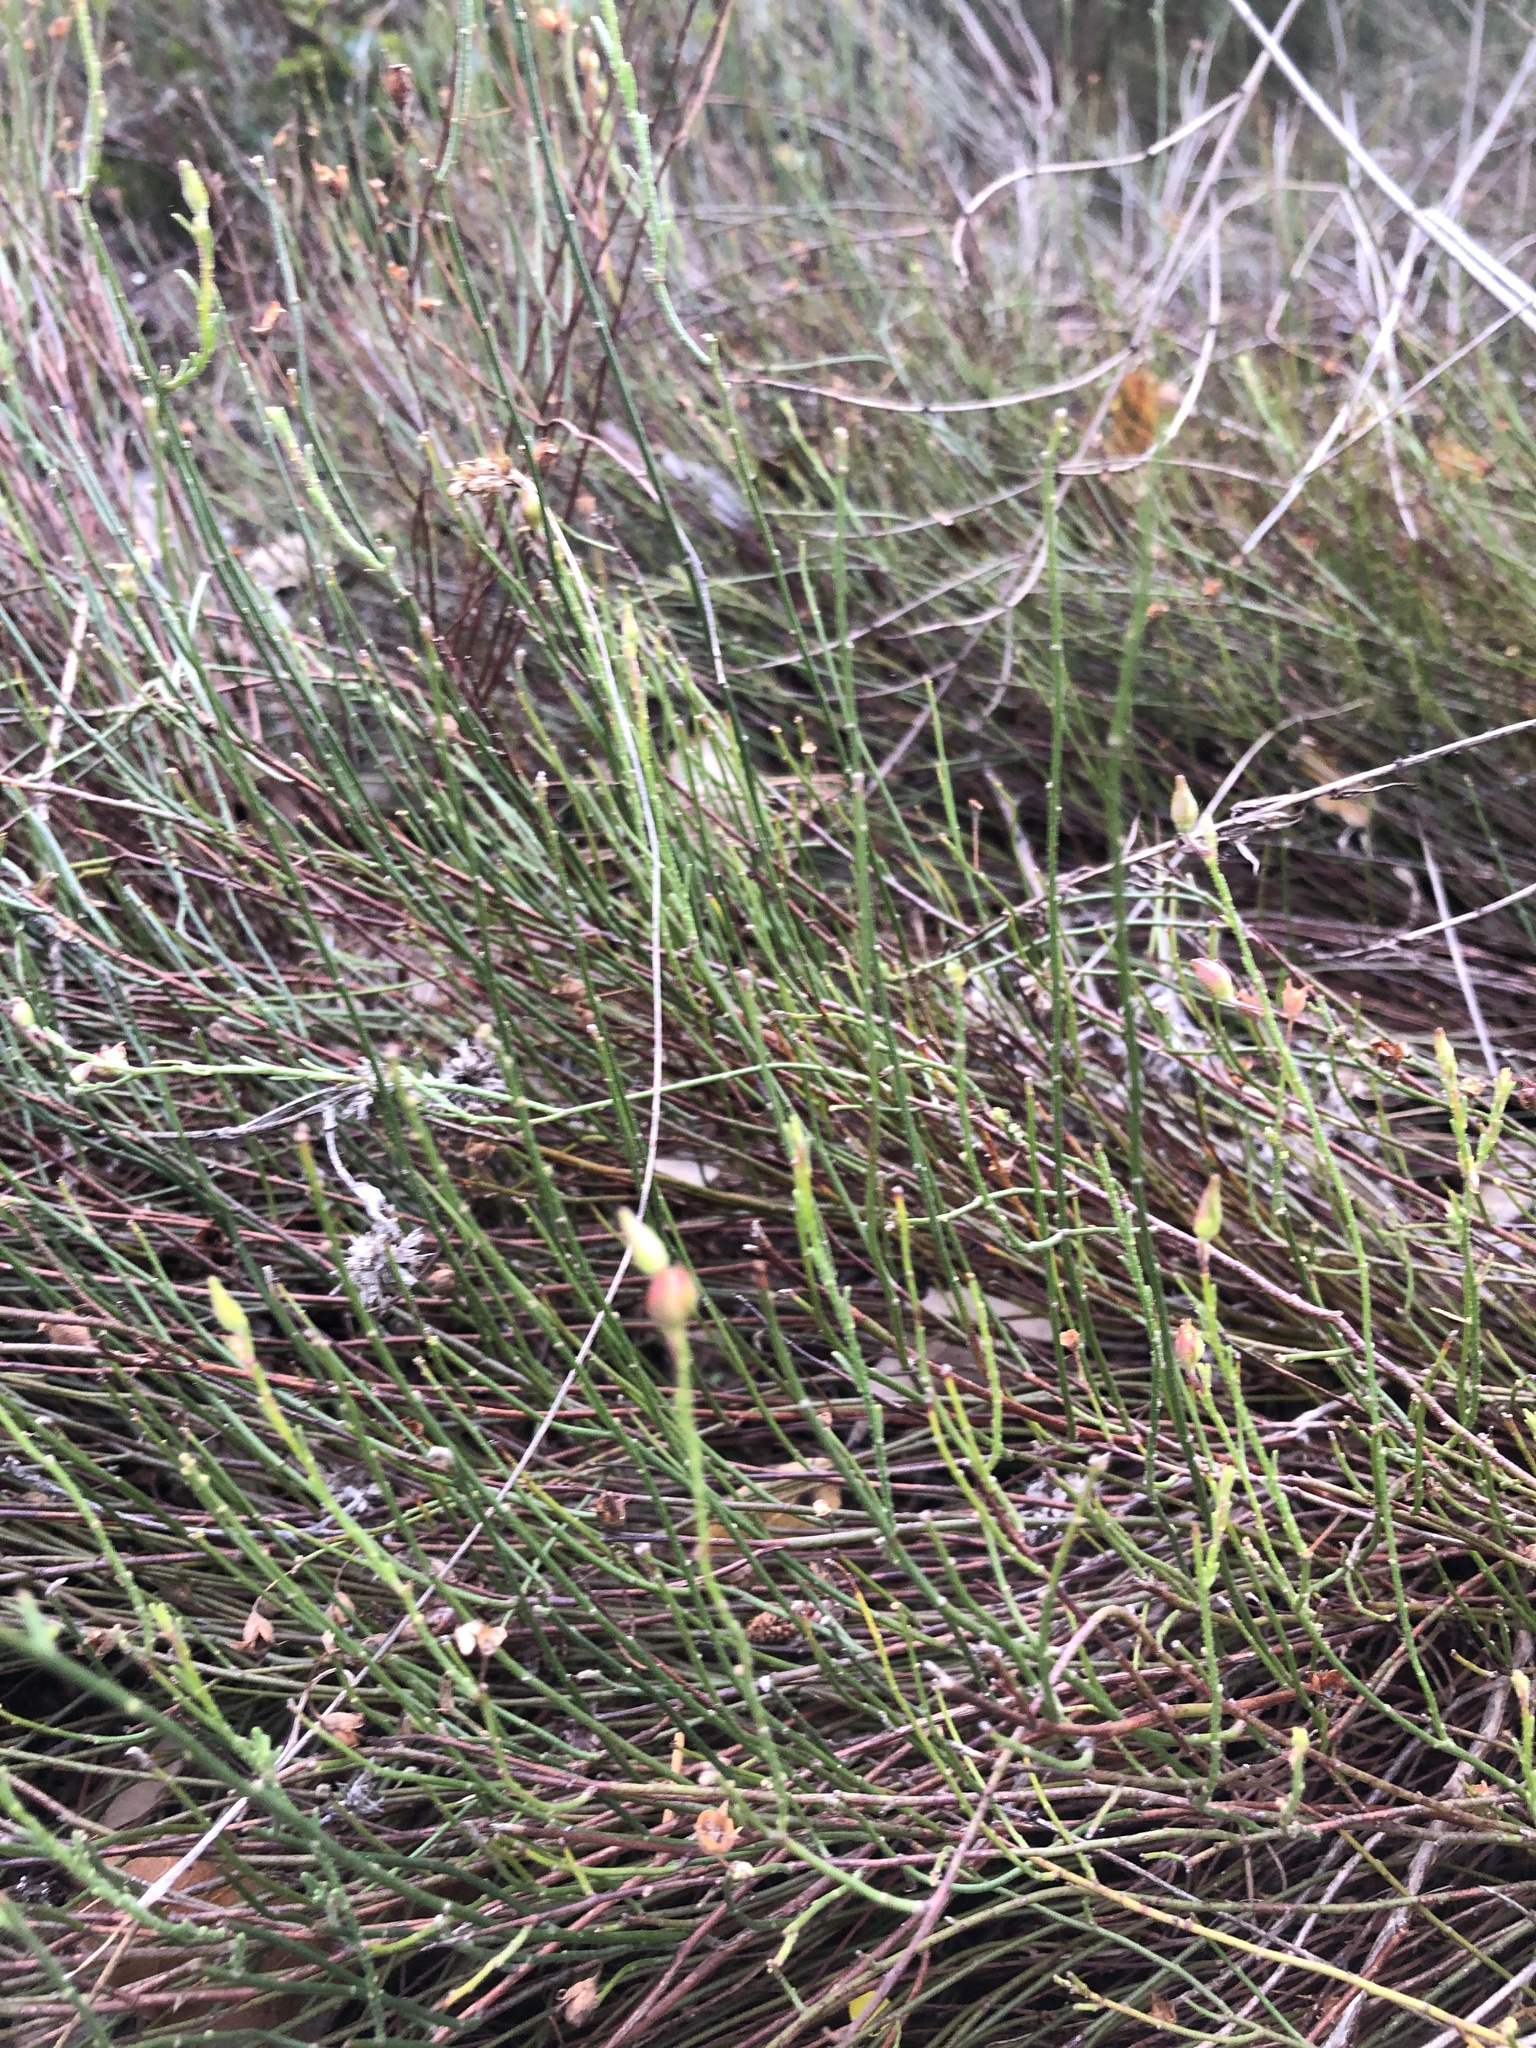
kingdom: Plantae
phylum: Tracheophyta
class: Magnoliopsida
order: Malvales
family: Cistaceae
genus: Crocanthemum
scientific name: Crocanthemum scoparium
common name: Broom-rose
